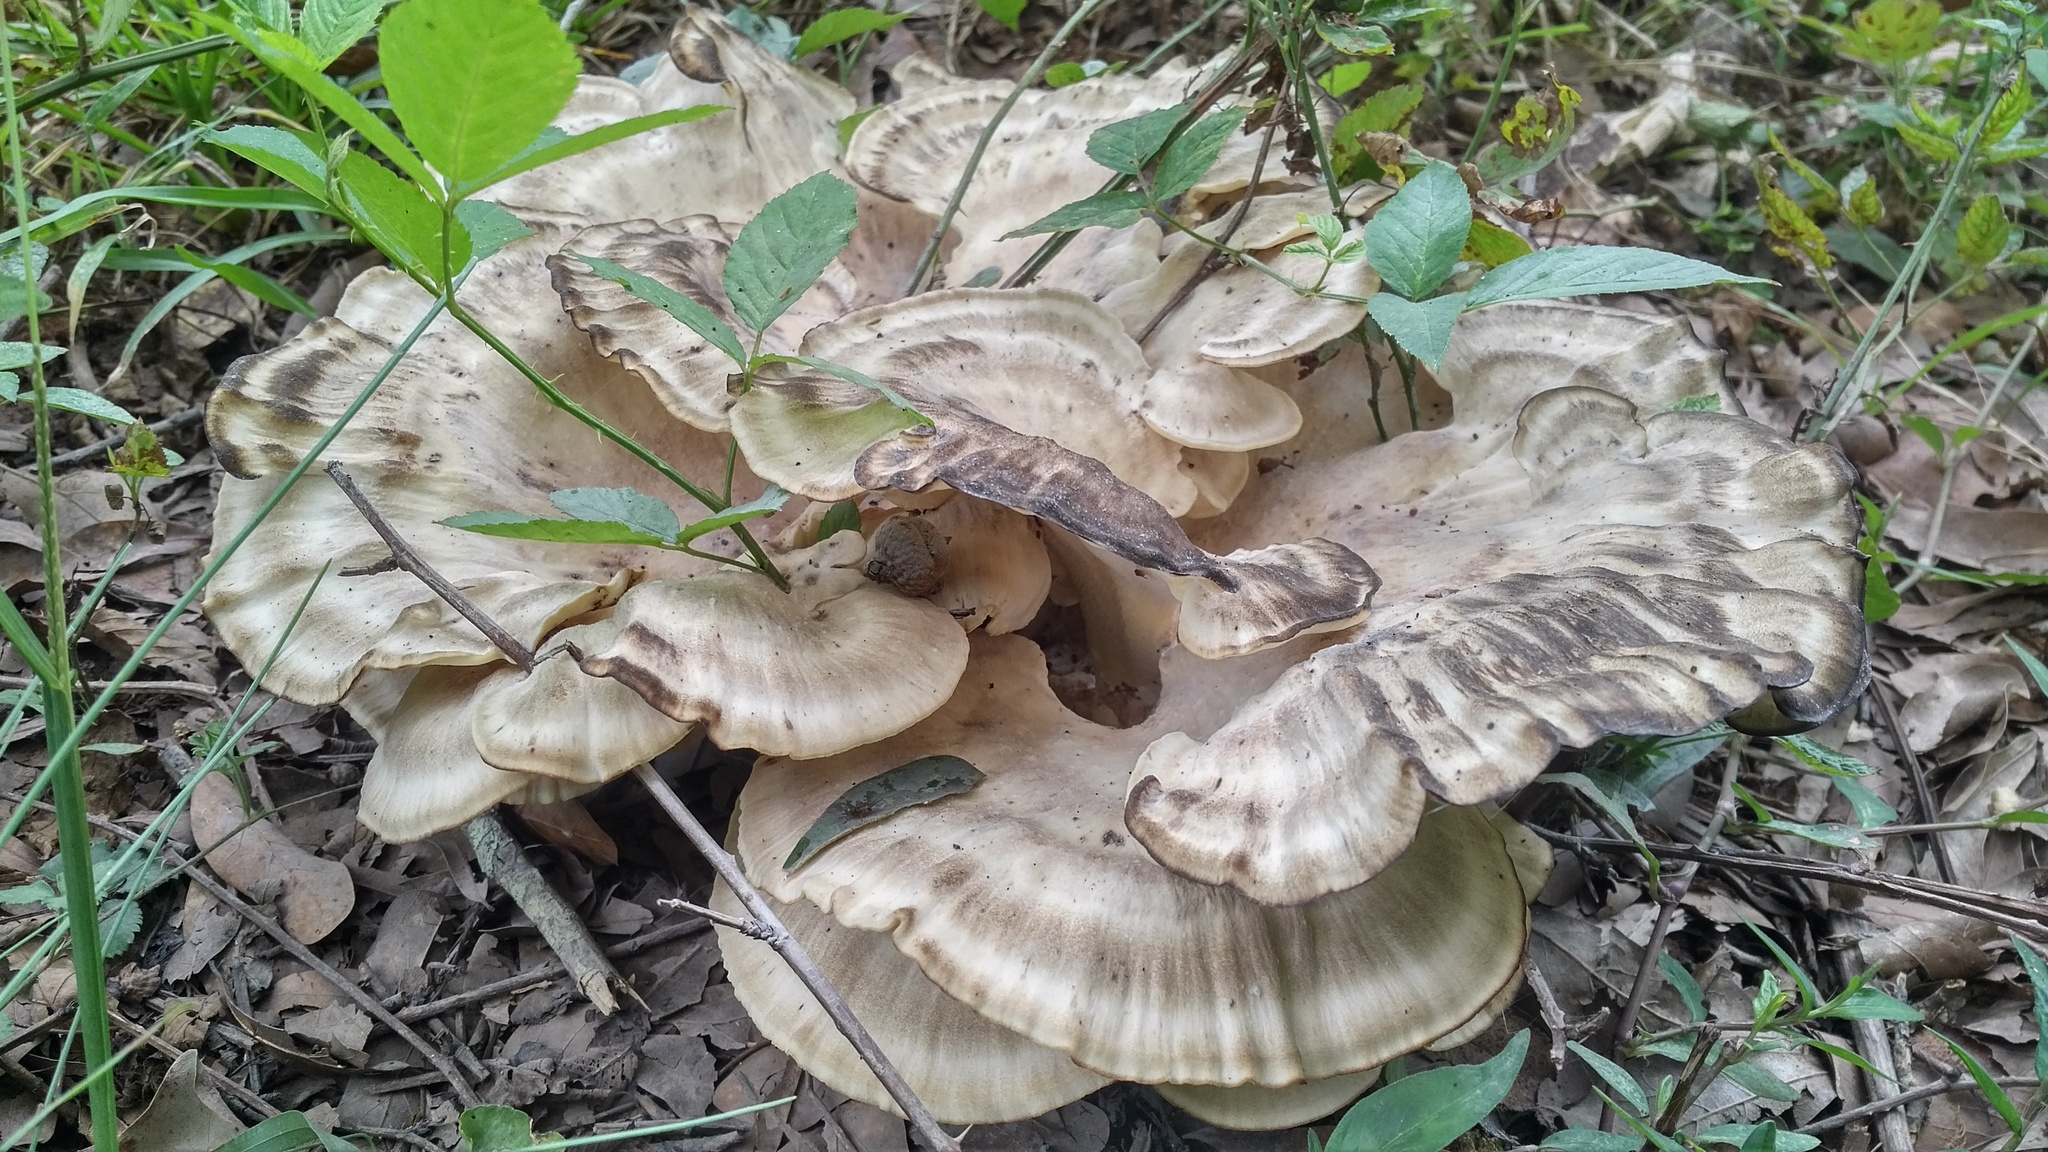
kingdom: Fungi
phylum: Basidiomycota
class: Agaricomycetes
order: Polyporales
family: Meripilaceae
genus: Meripilus
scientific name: Meripilus sumstinei
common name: Black-staining polypore
